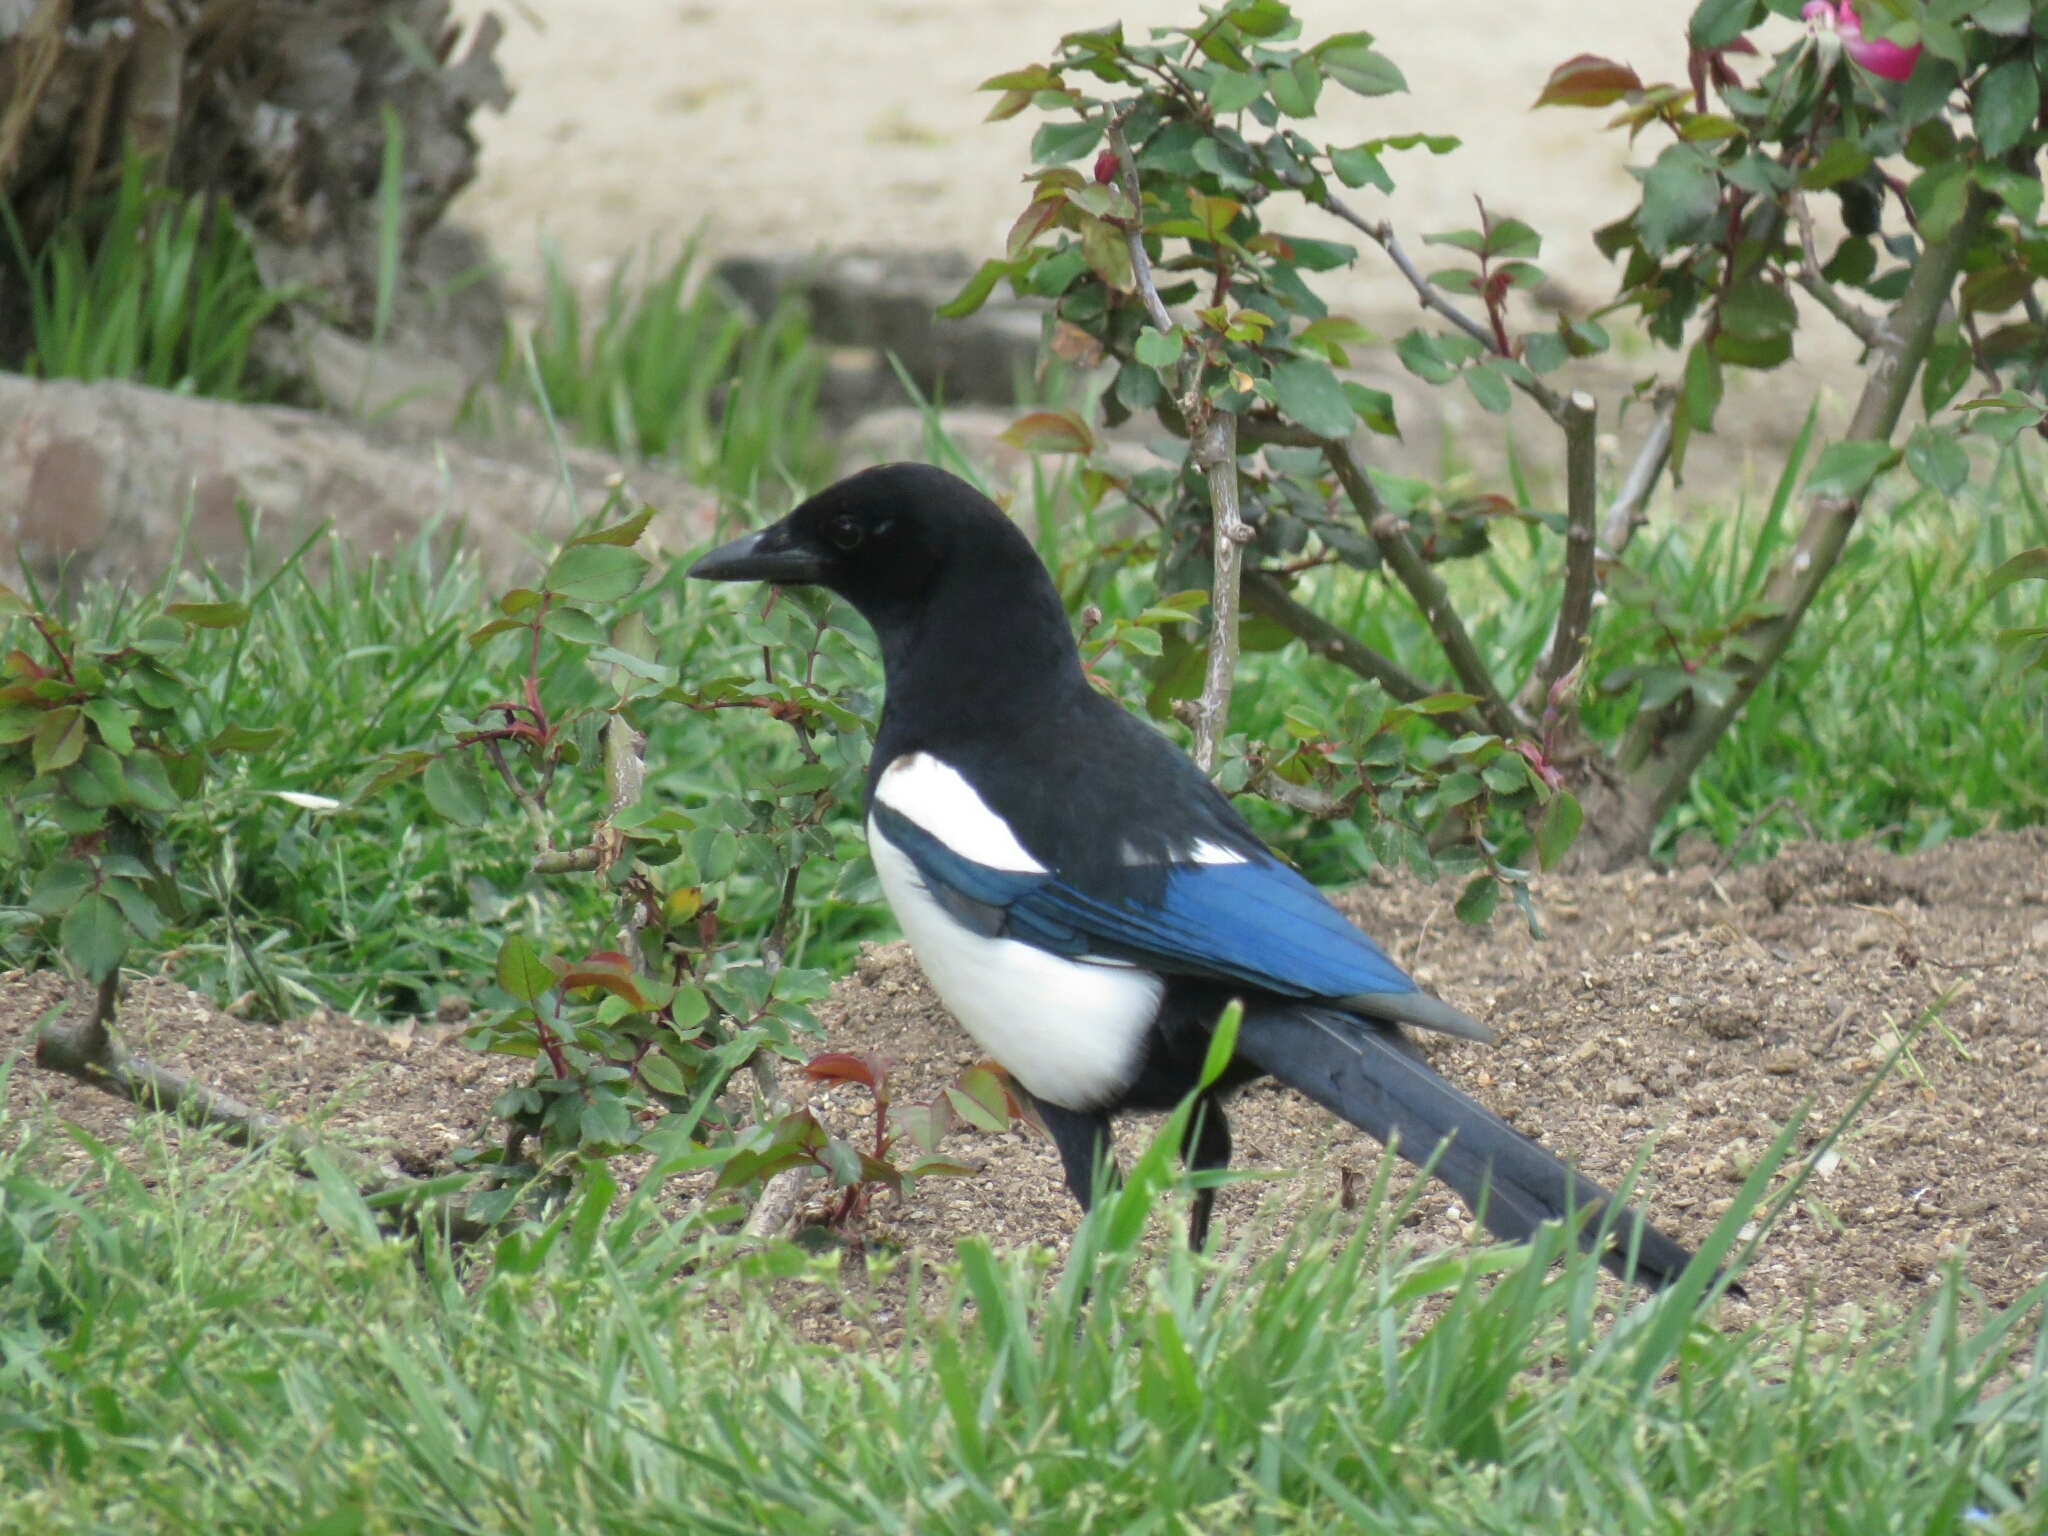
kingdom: Animalia
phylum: Chordata
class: Aves
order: Passeriformes
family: Corvidae
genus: Pica
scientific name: Pica pica
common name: Eurasian magpie
